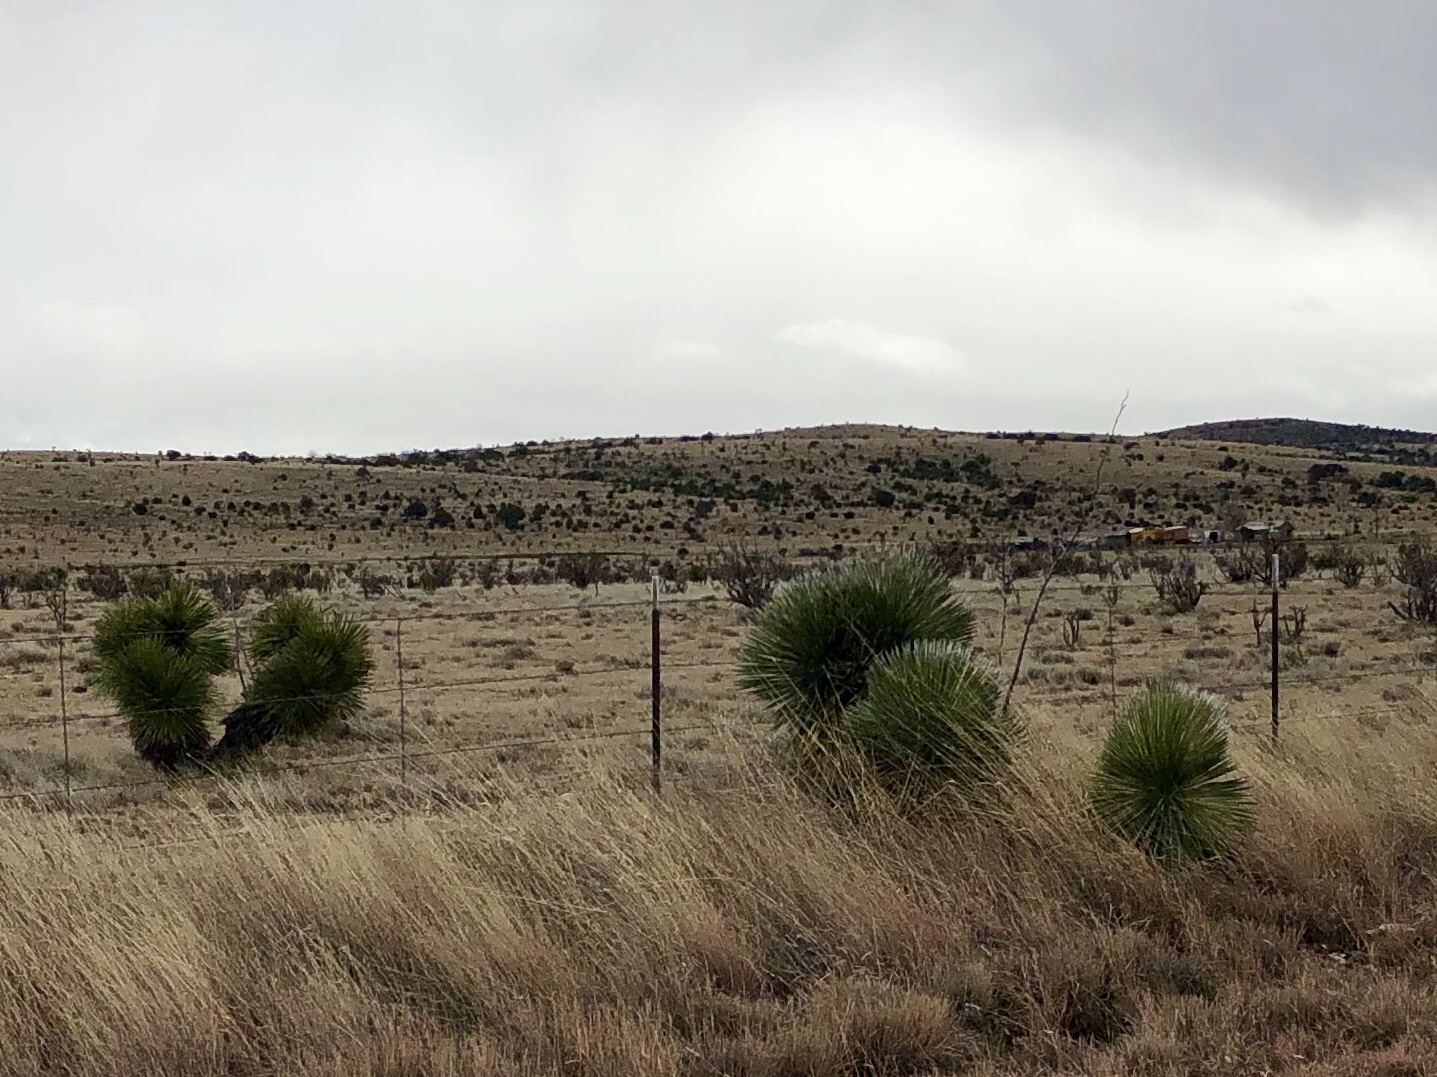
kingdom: Plantae
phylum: Tracheophyta
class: Liliopsida
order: Asparagales
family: Asparagaceae
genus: Yucca
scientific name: Yucca elata
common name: Palmella
